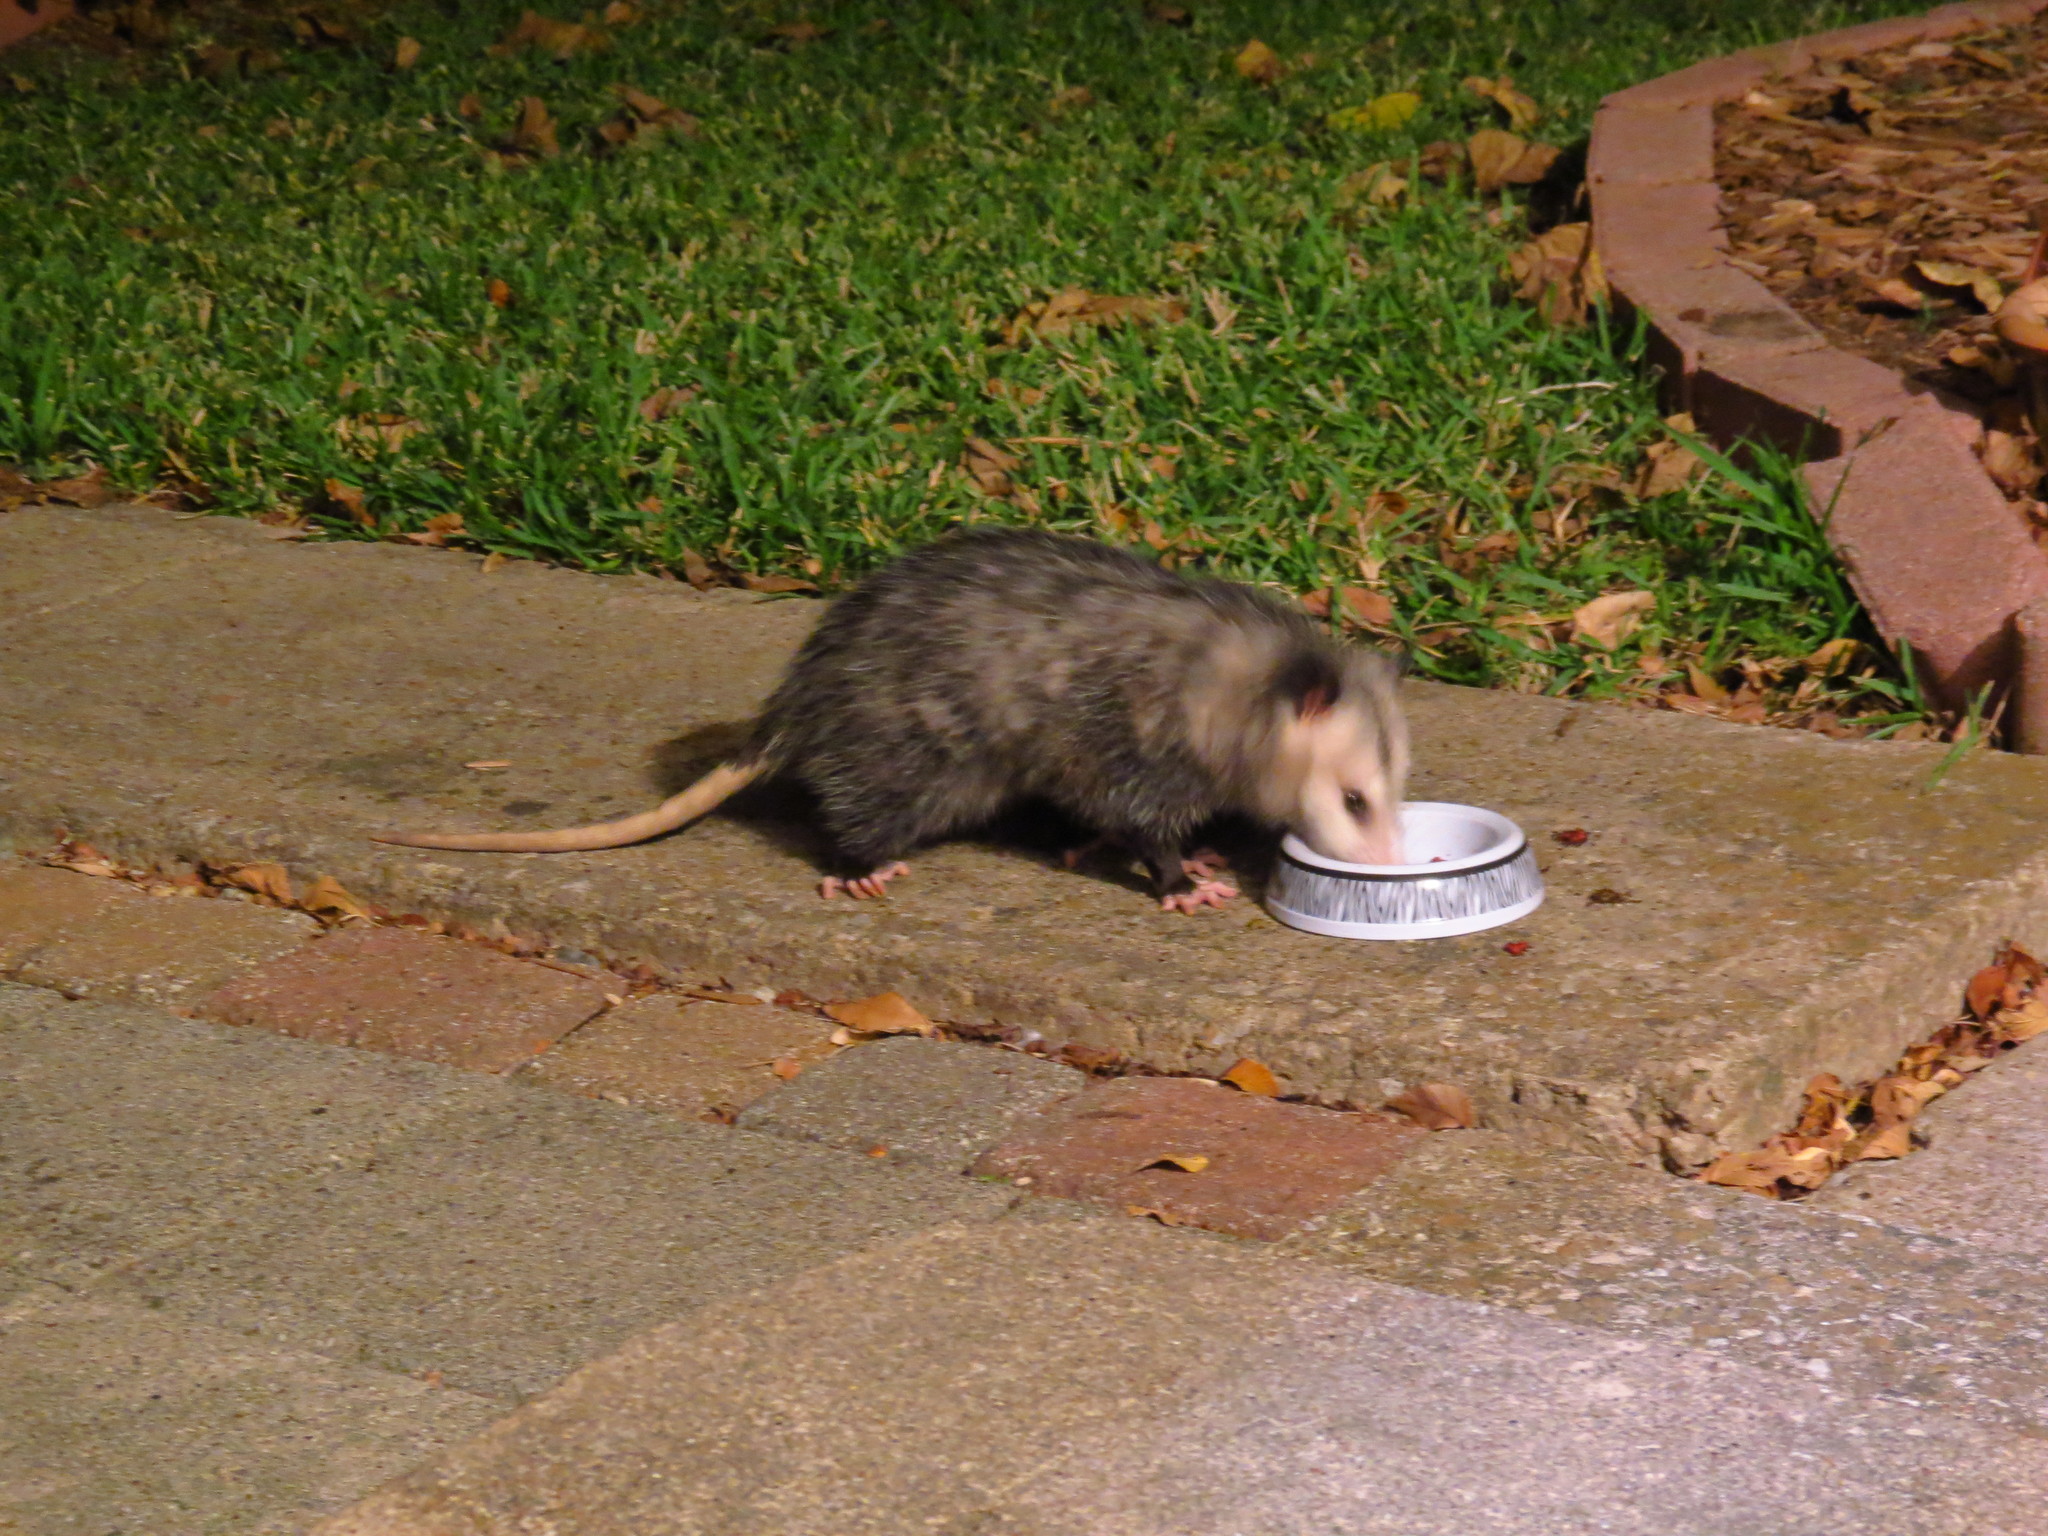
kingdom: Animalia
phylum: Chordata
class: Mammalia
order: Didelphimorphia
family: Didelphidae
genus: Didelphis
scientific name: Didelphis virginiana
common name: Virginia opossum
